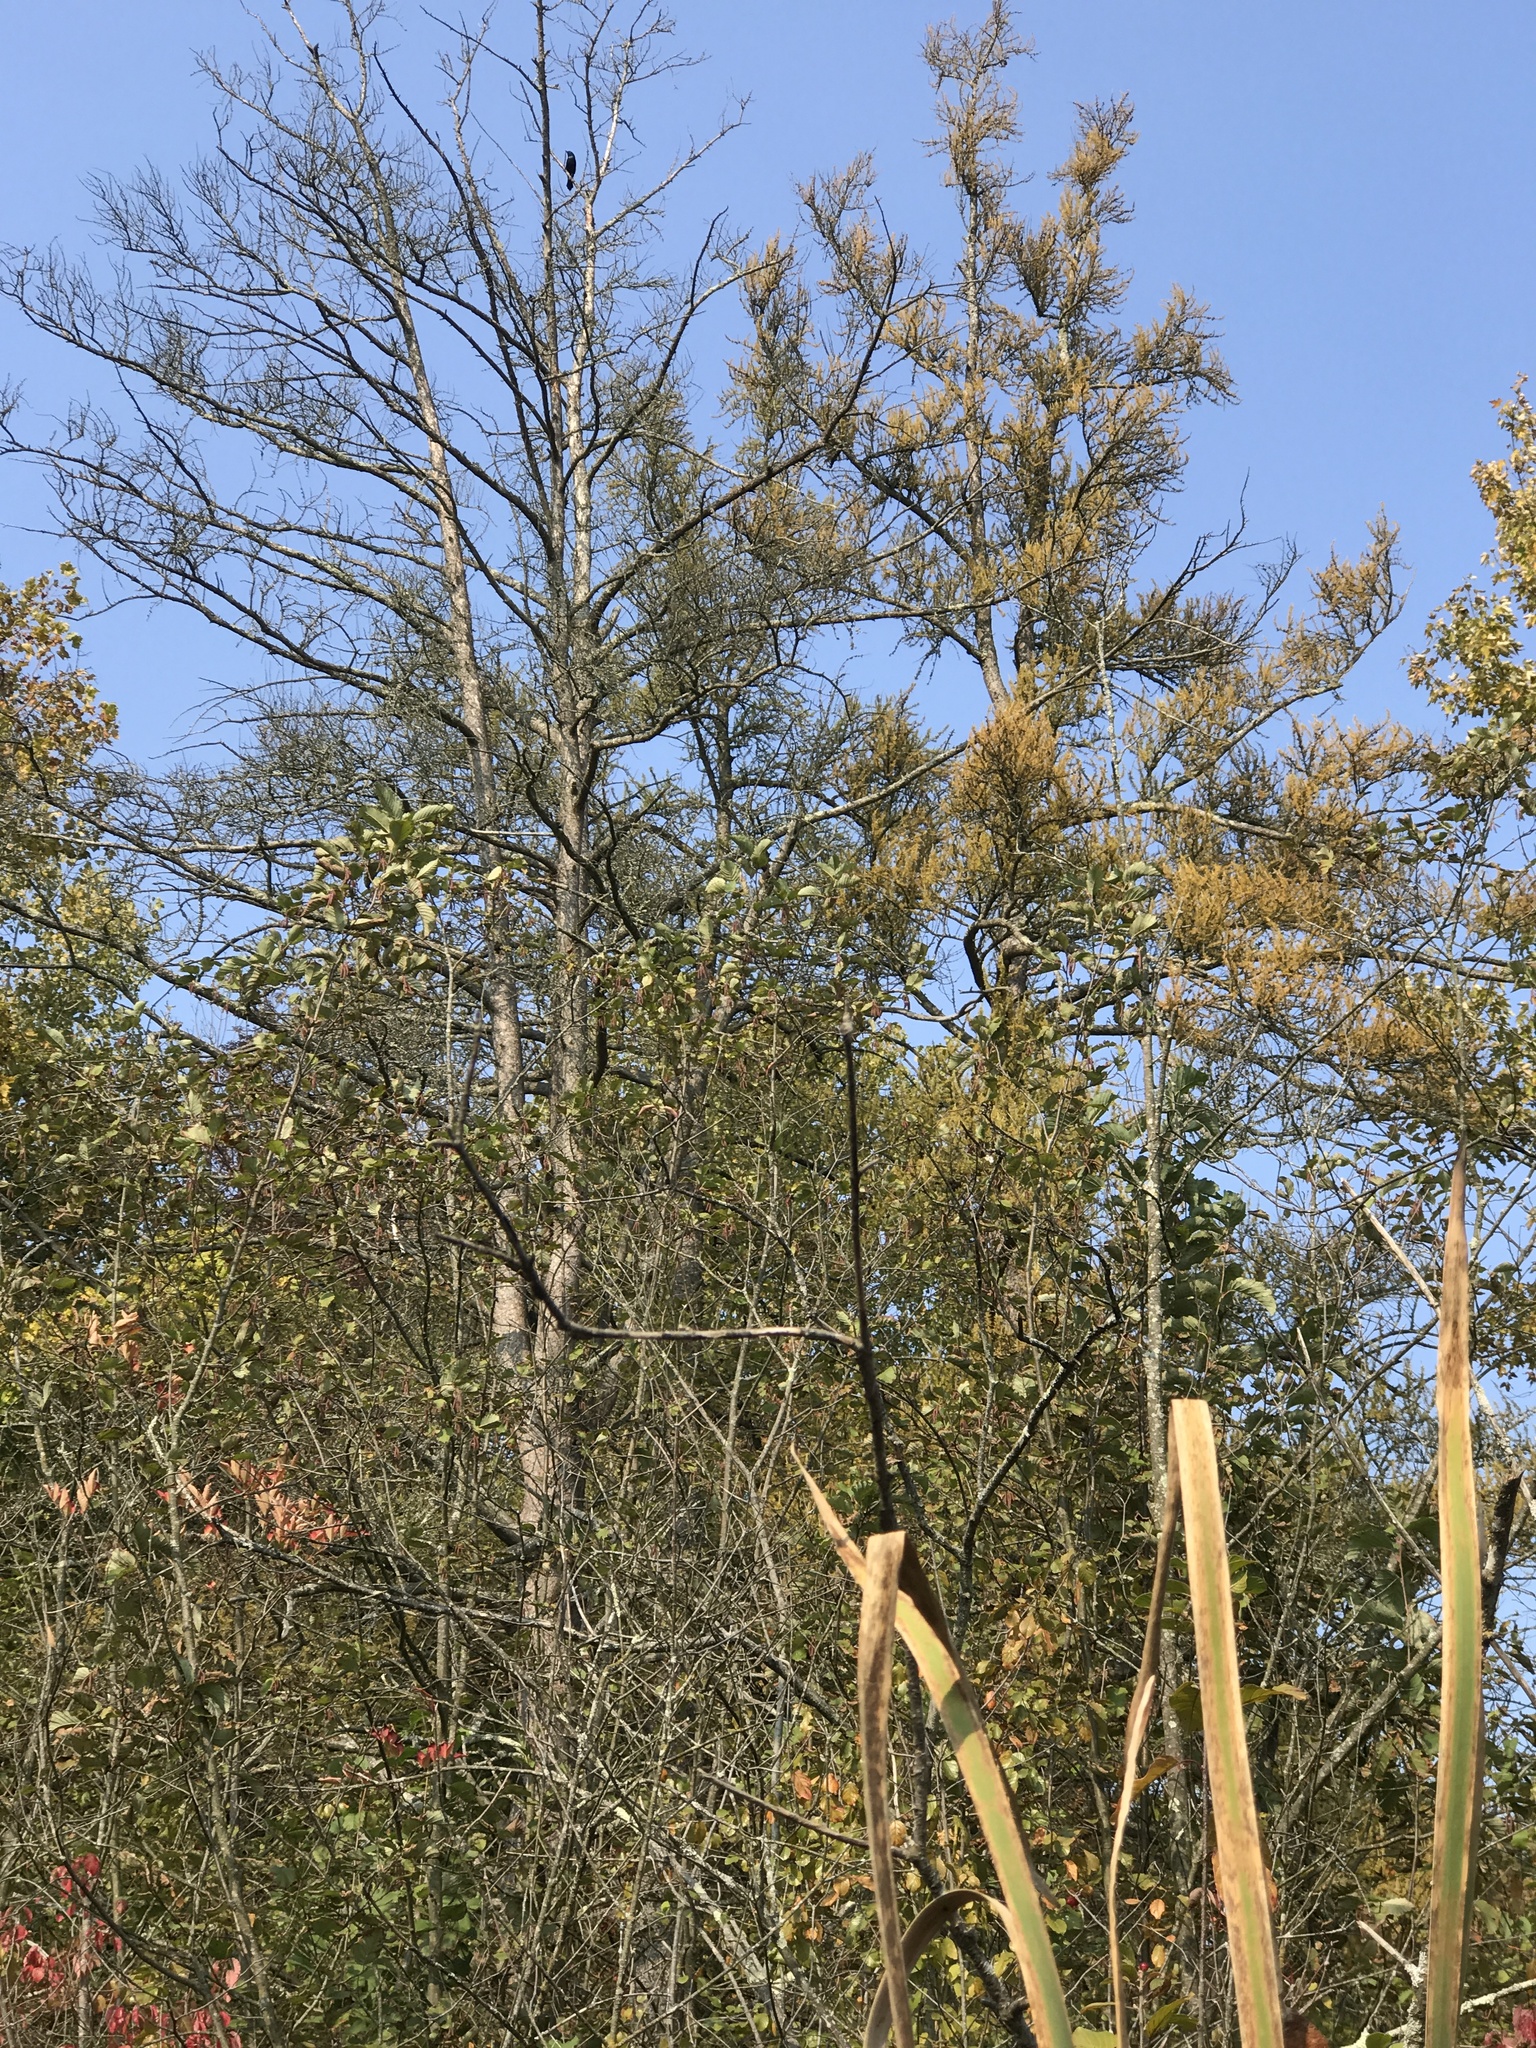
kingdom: Plantae
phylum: Tracheophyta
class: Pinopsida
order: Pinales
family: Pinaceae
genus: Larix
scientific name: Larix laricina
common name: American larch
